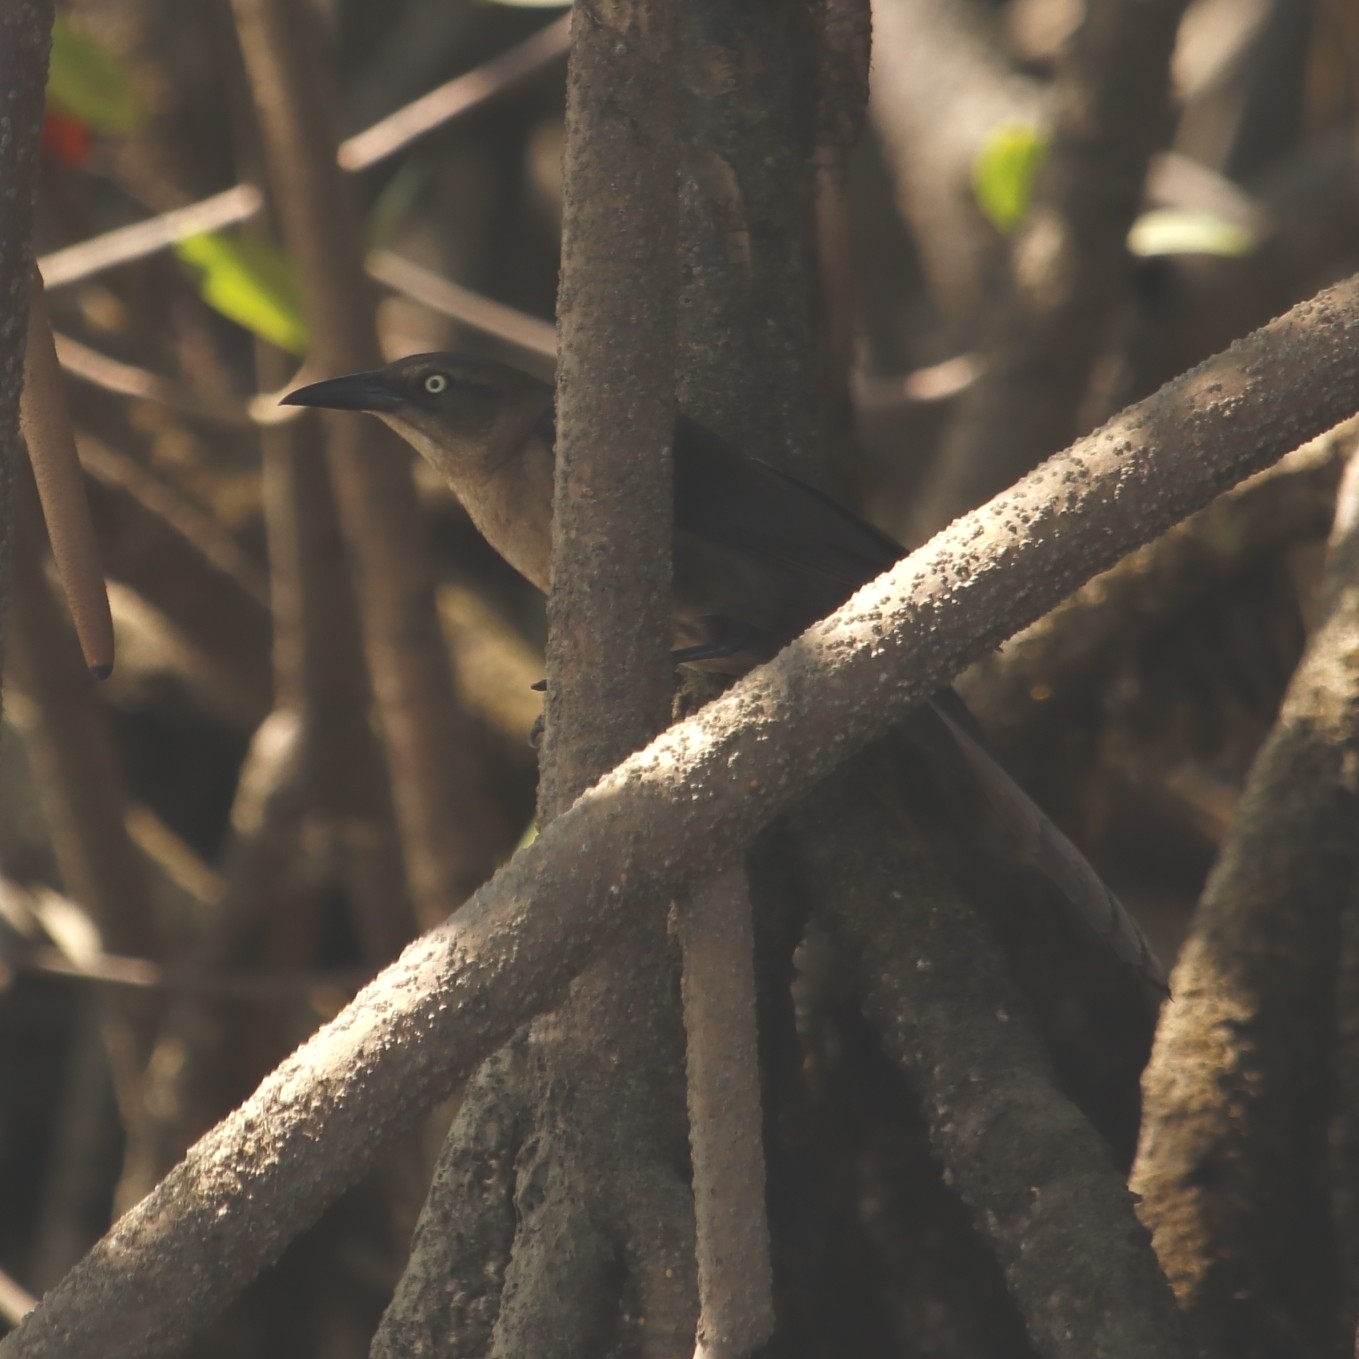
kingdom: Animalia
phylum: Chordata
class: Aves
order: Passeriformes
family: Icteridae
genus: Quiscalus
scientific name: Quiscalus mexicanus
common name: Great-tailed grackle
